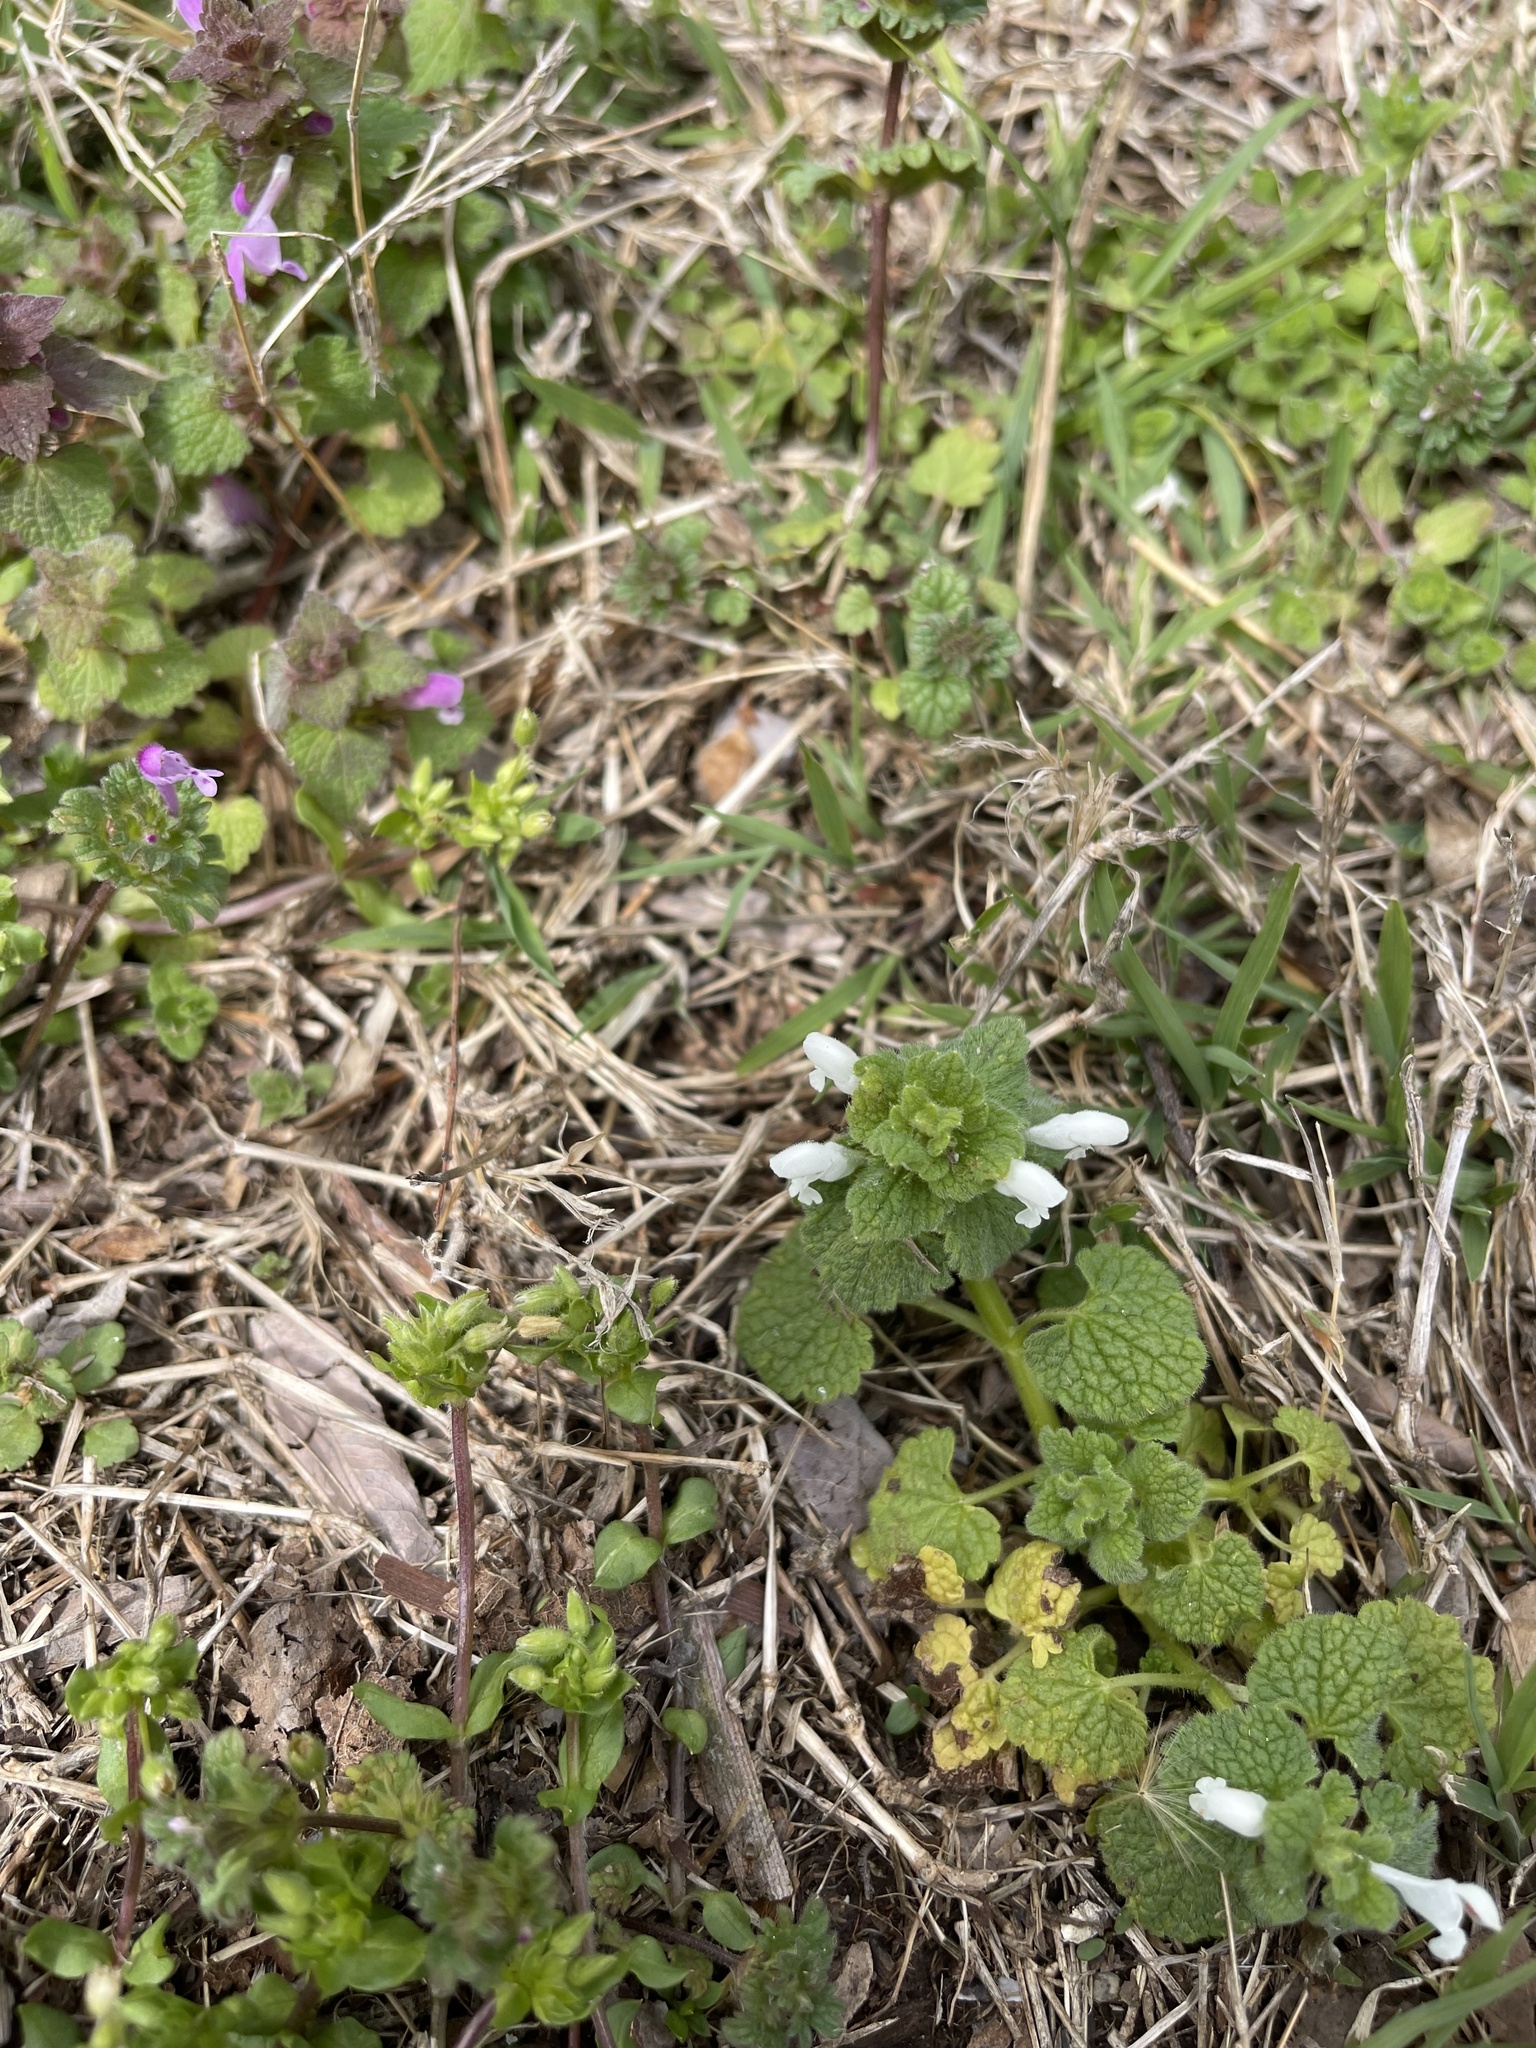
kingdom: Plantae
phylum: Tracheophyta
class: Magnoliopsida
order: Lamiales
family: Lamiaceae
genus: Lamium
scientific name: Lamium purpureum
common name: Red dead-nettle
